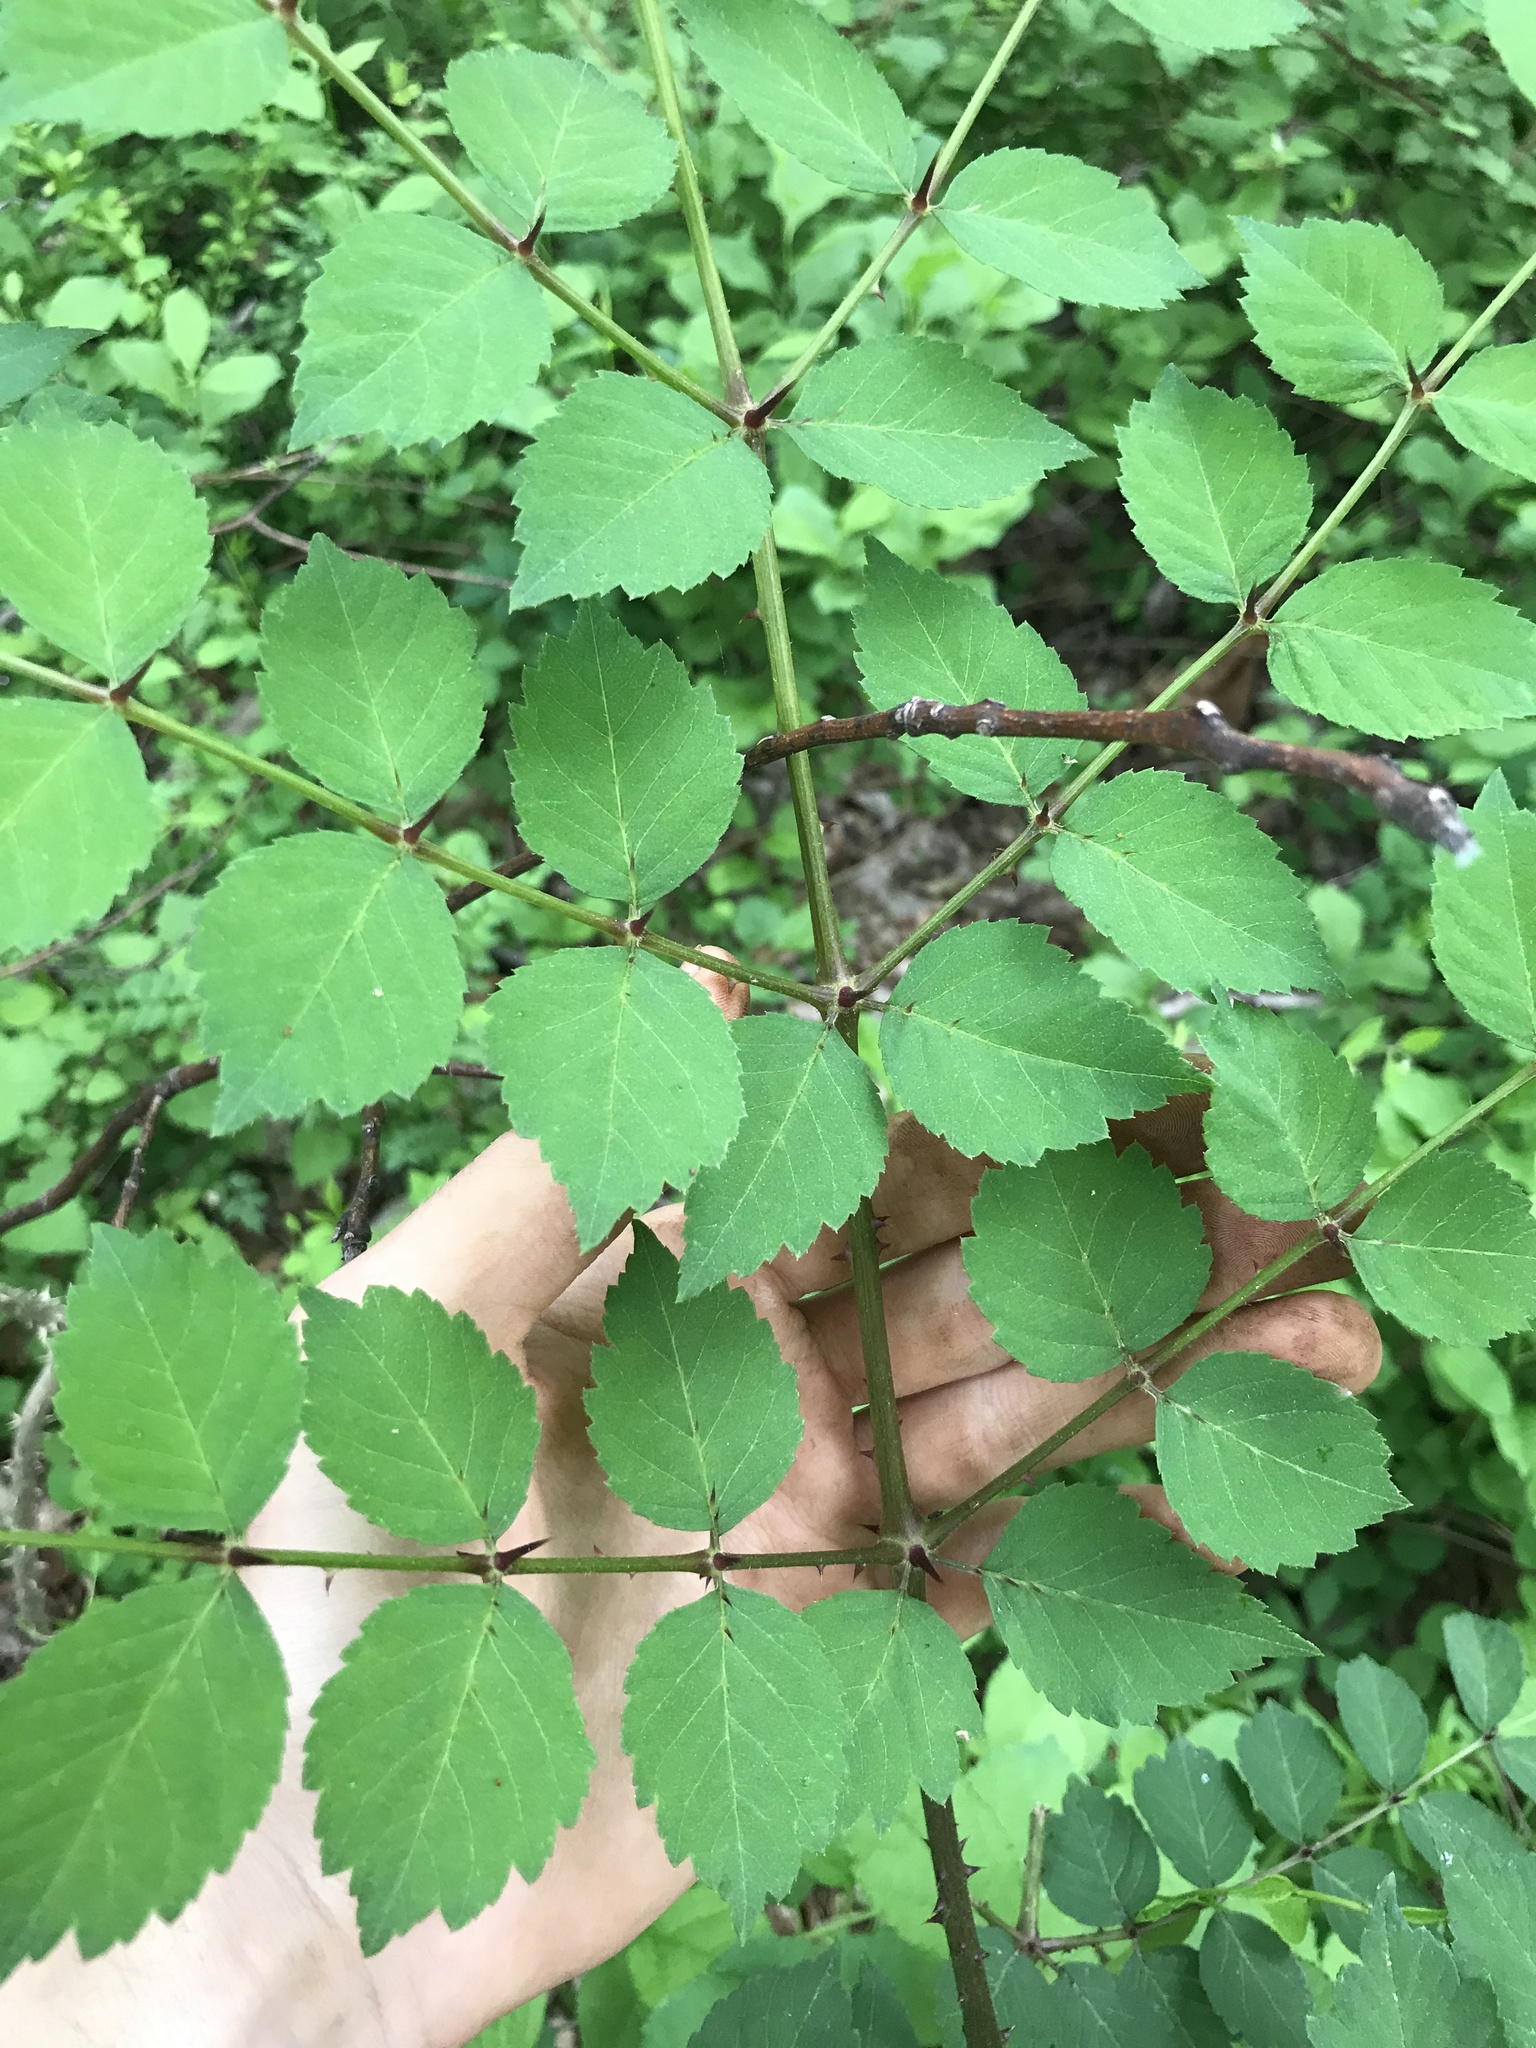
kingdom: Plantae
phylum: Tracheophyta
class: Magnoliopsida
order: Apiales
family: Araliaceae
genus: Aralia
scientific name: Aralia elata
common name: Japanese angelica-tree
